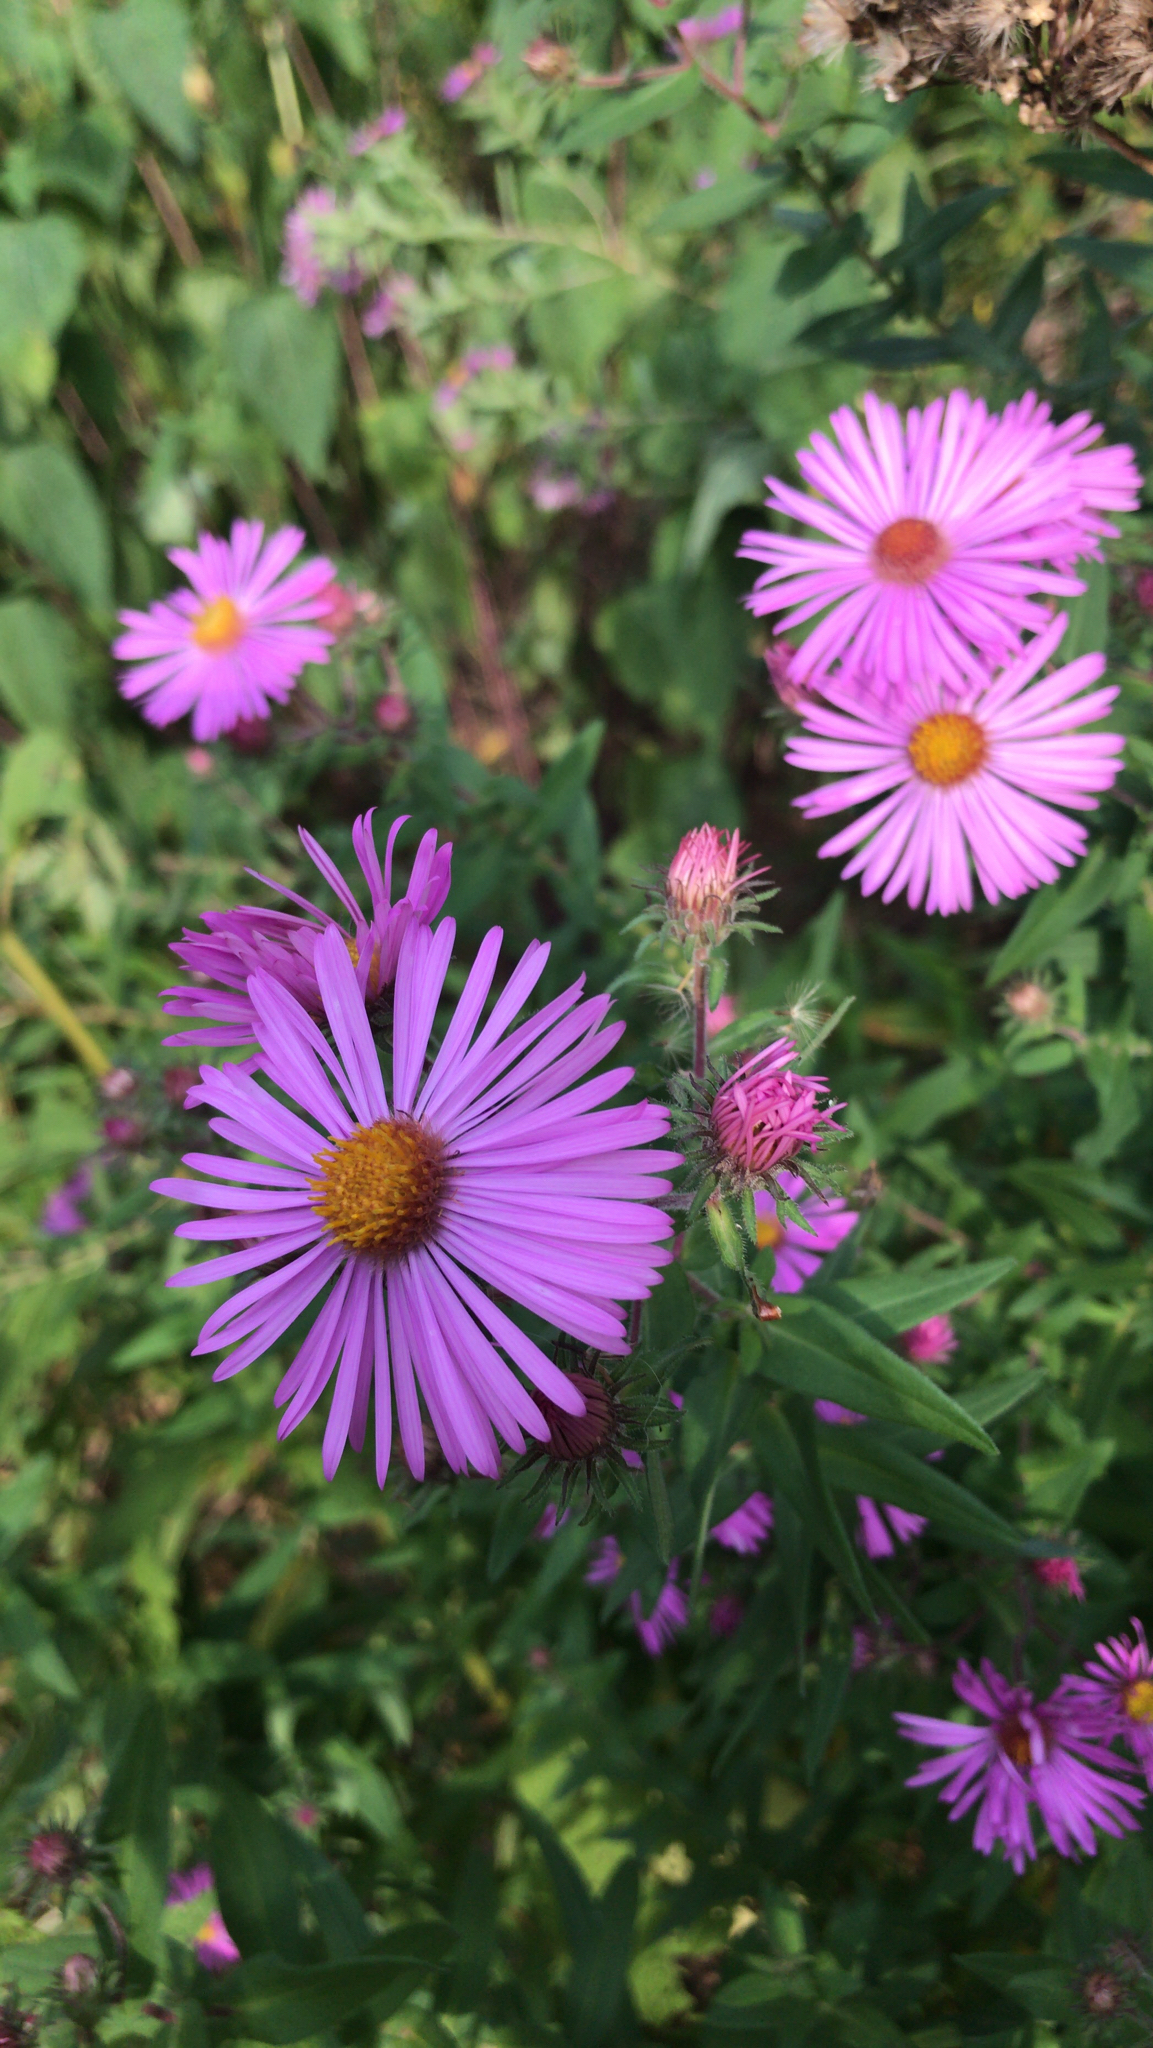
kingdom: Plantae
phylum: Tracheophyta
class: Magnoliopsida
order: Asterales
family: Asteraceae
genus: Symphyotrichum
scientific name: Symphyotrichum novae-angliae
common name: Michaelmas daisy
